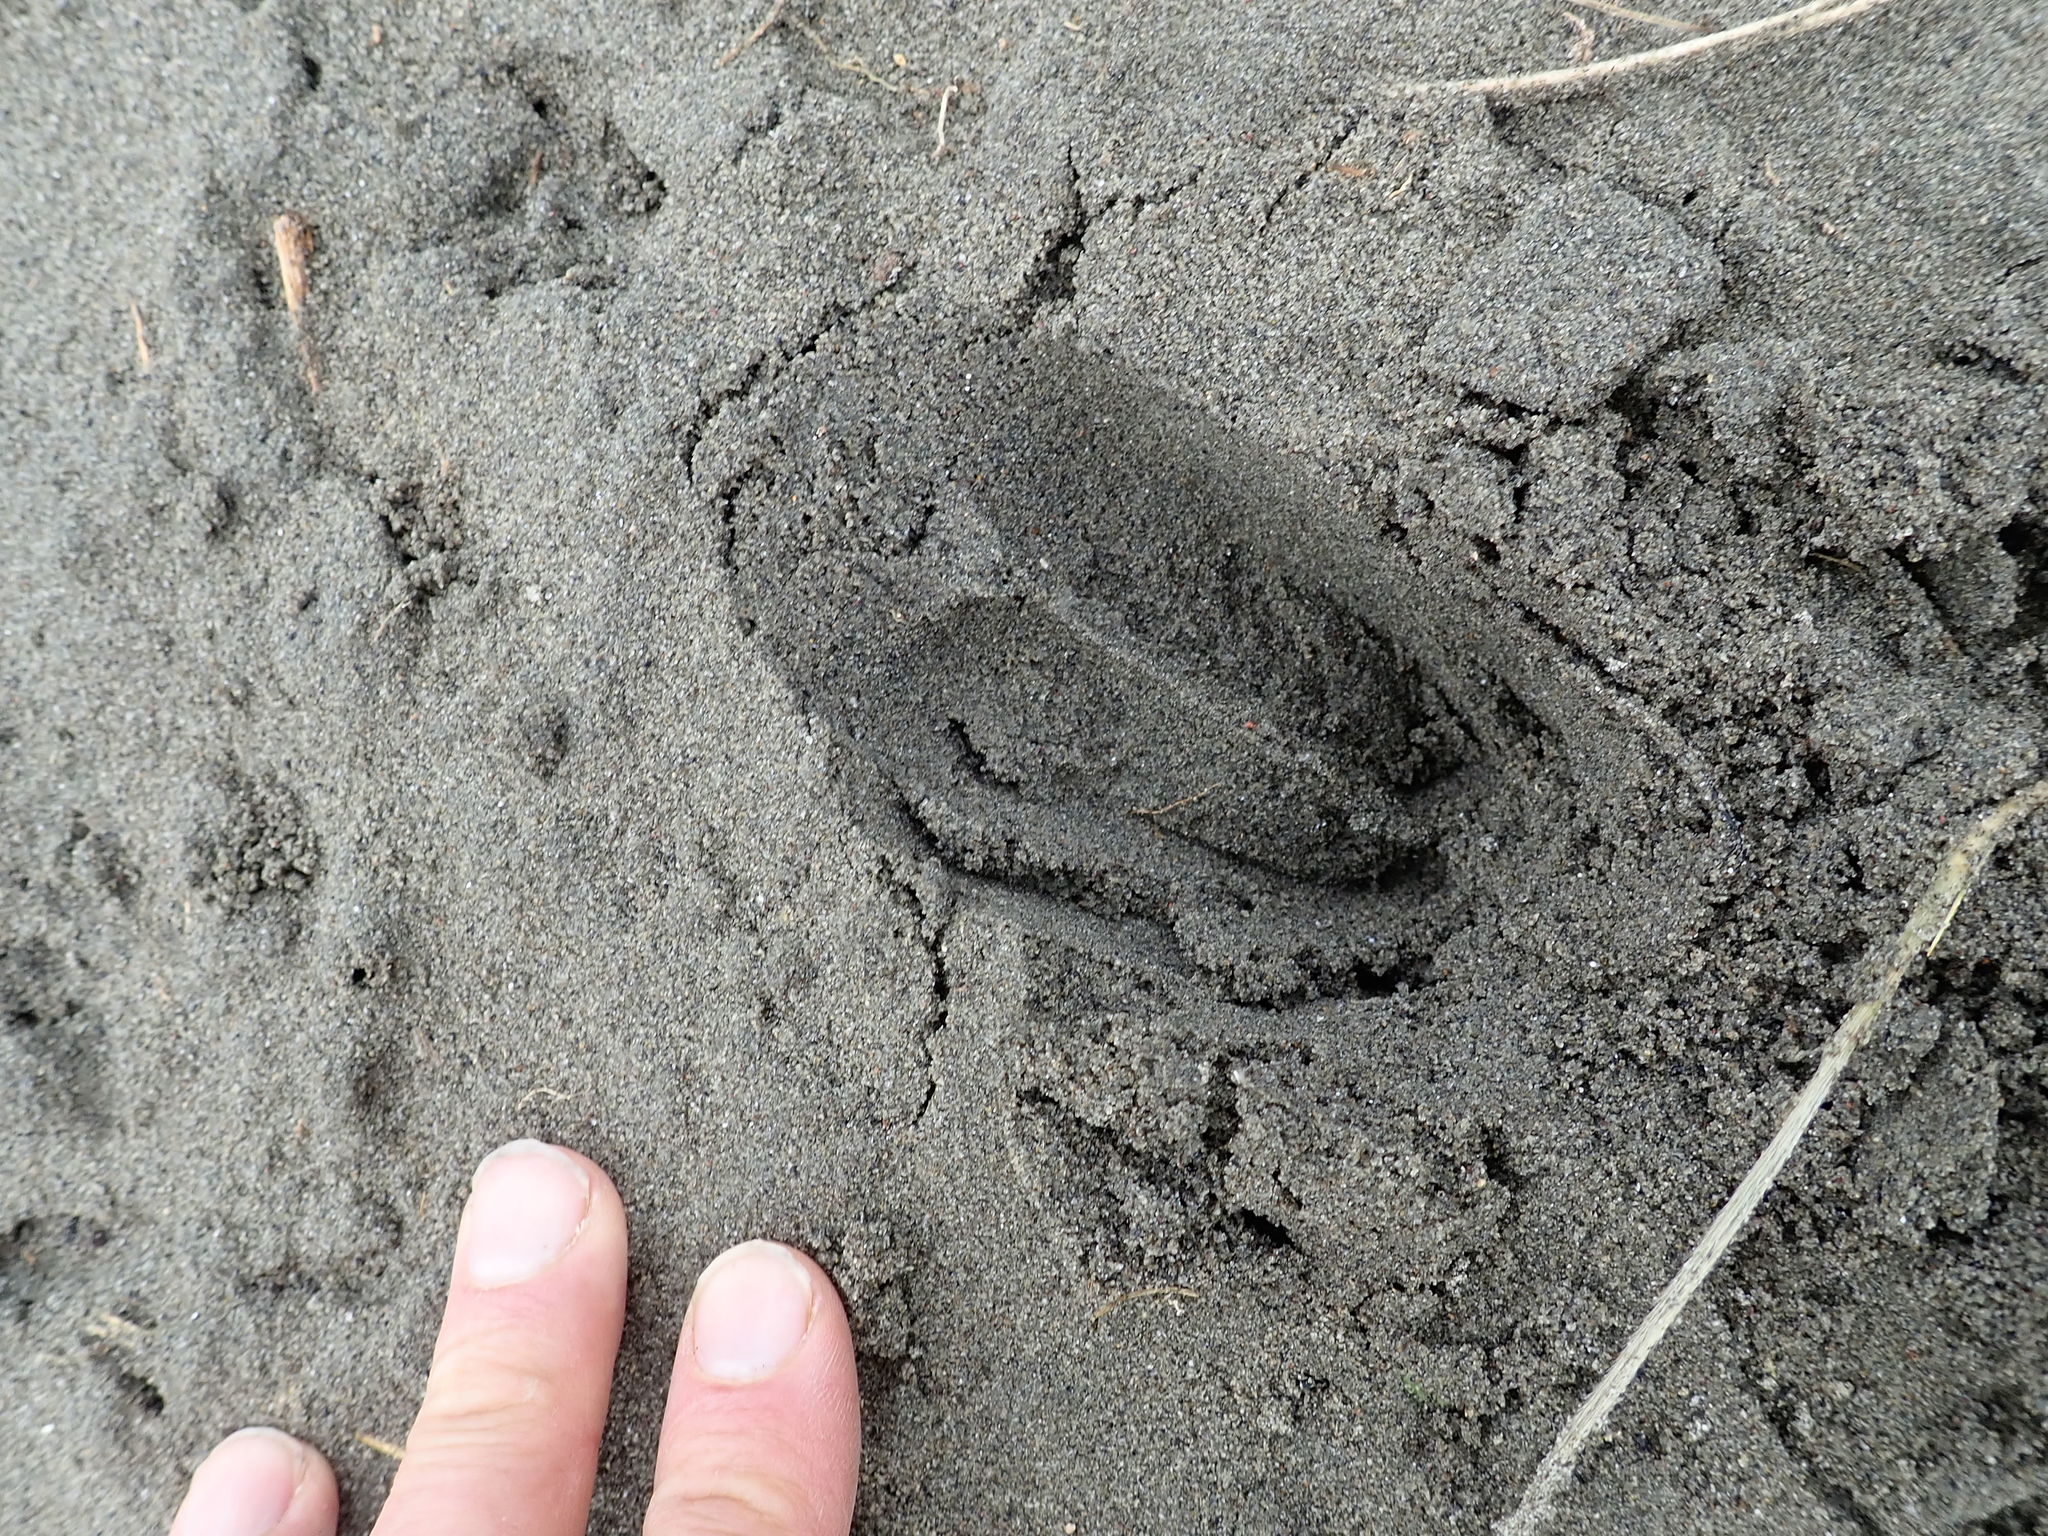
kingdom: Animalia
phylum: Chordata
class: Mammalia
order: Artiodactyla
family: Cervidae
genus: Rusa
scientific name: Rusa unicolor
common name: Sambar
